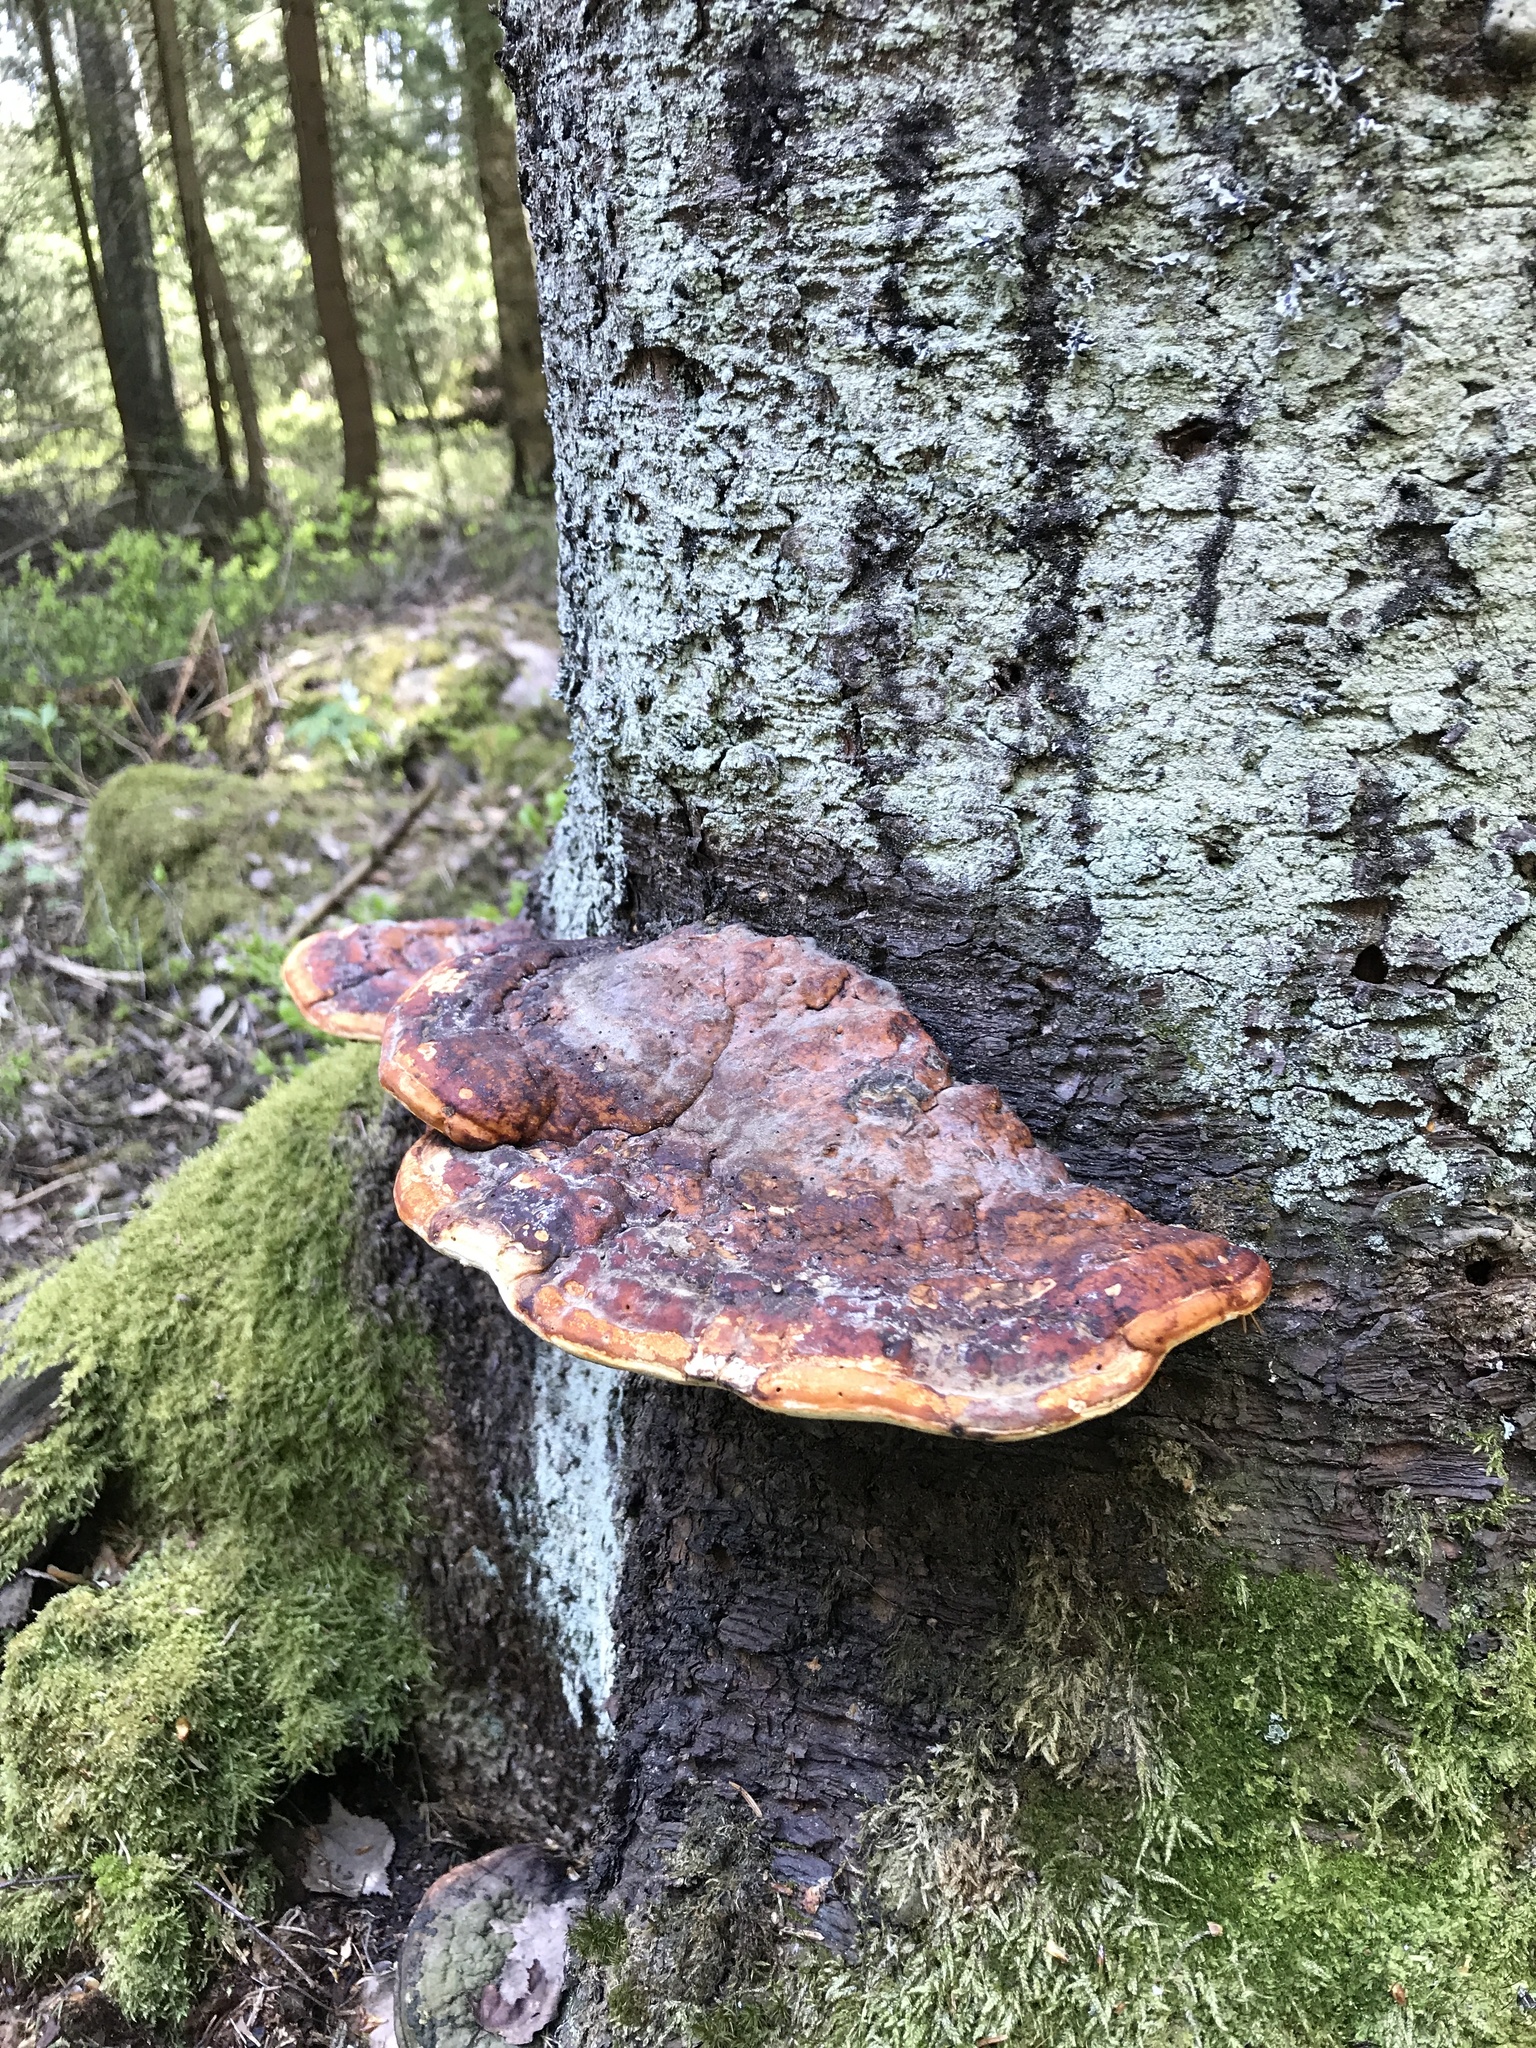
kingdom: Fungi
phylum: Basidiomycota
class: Agaricomycetes
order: Polyporales
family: Fomitopsidaceae
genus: Fomitopsis
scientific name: Fomitopsis pinicola
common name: Red-belted bracket
